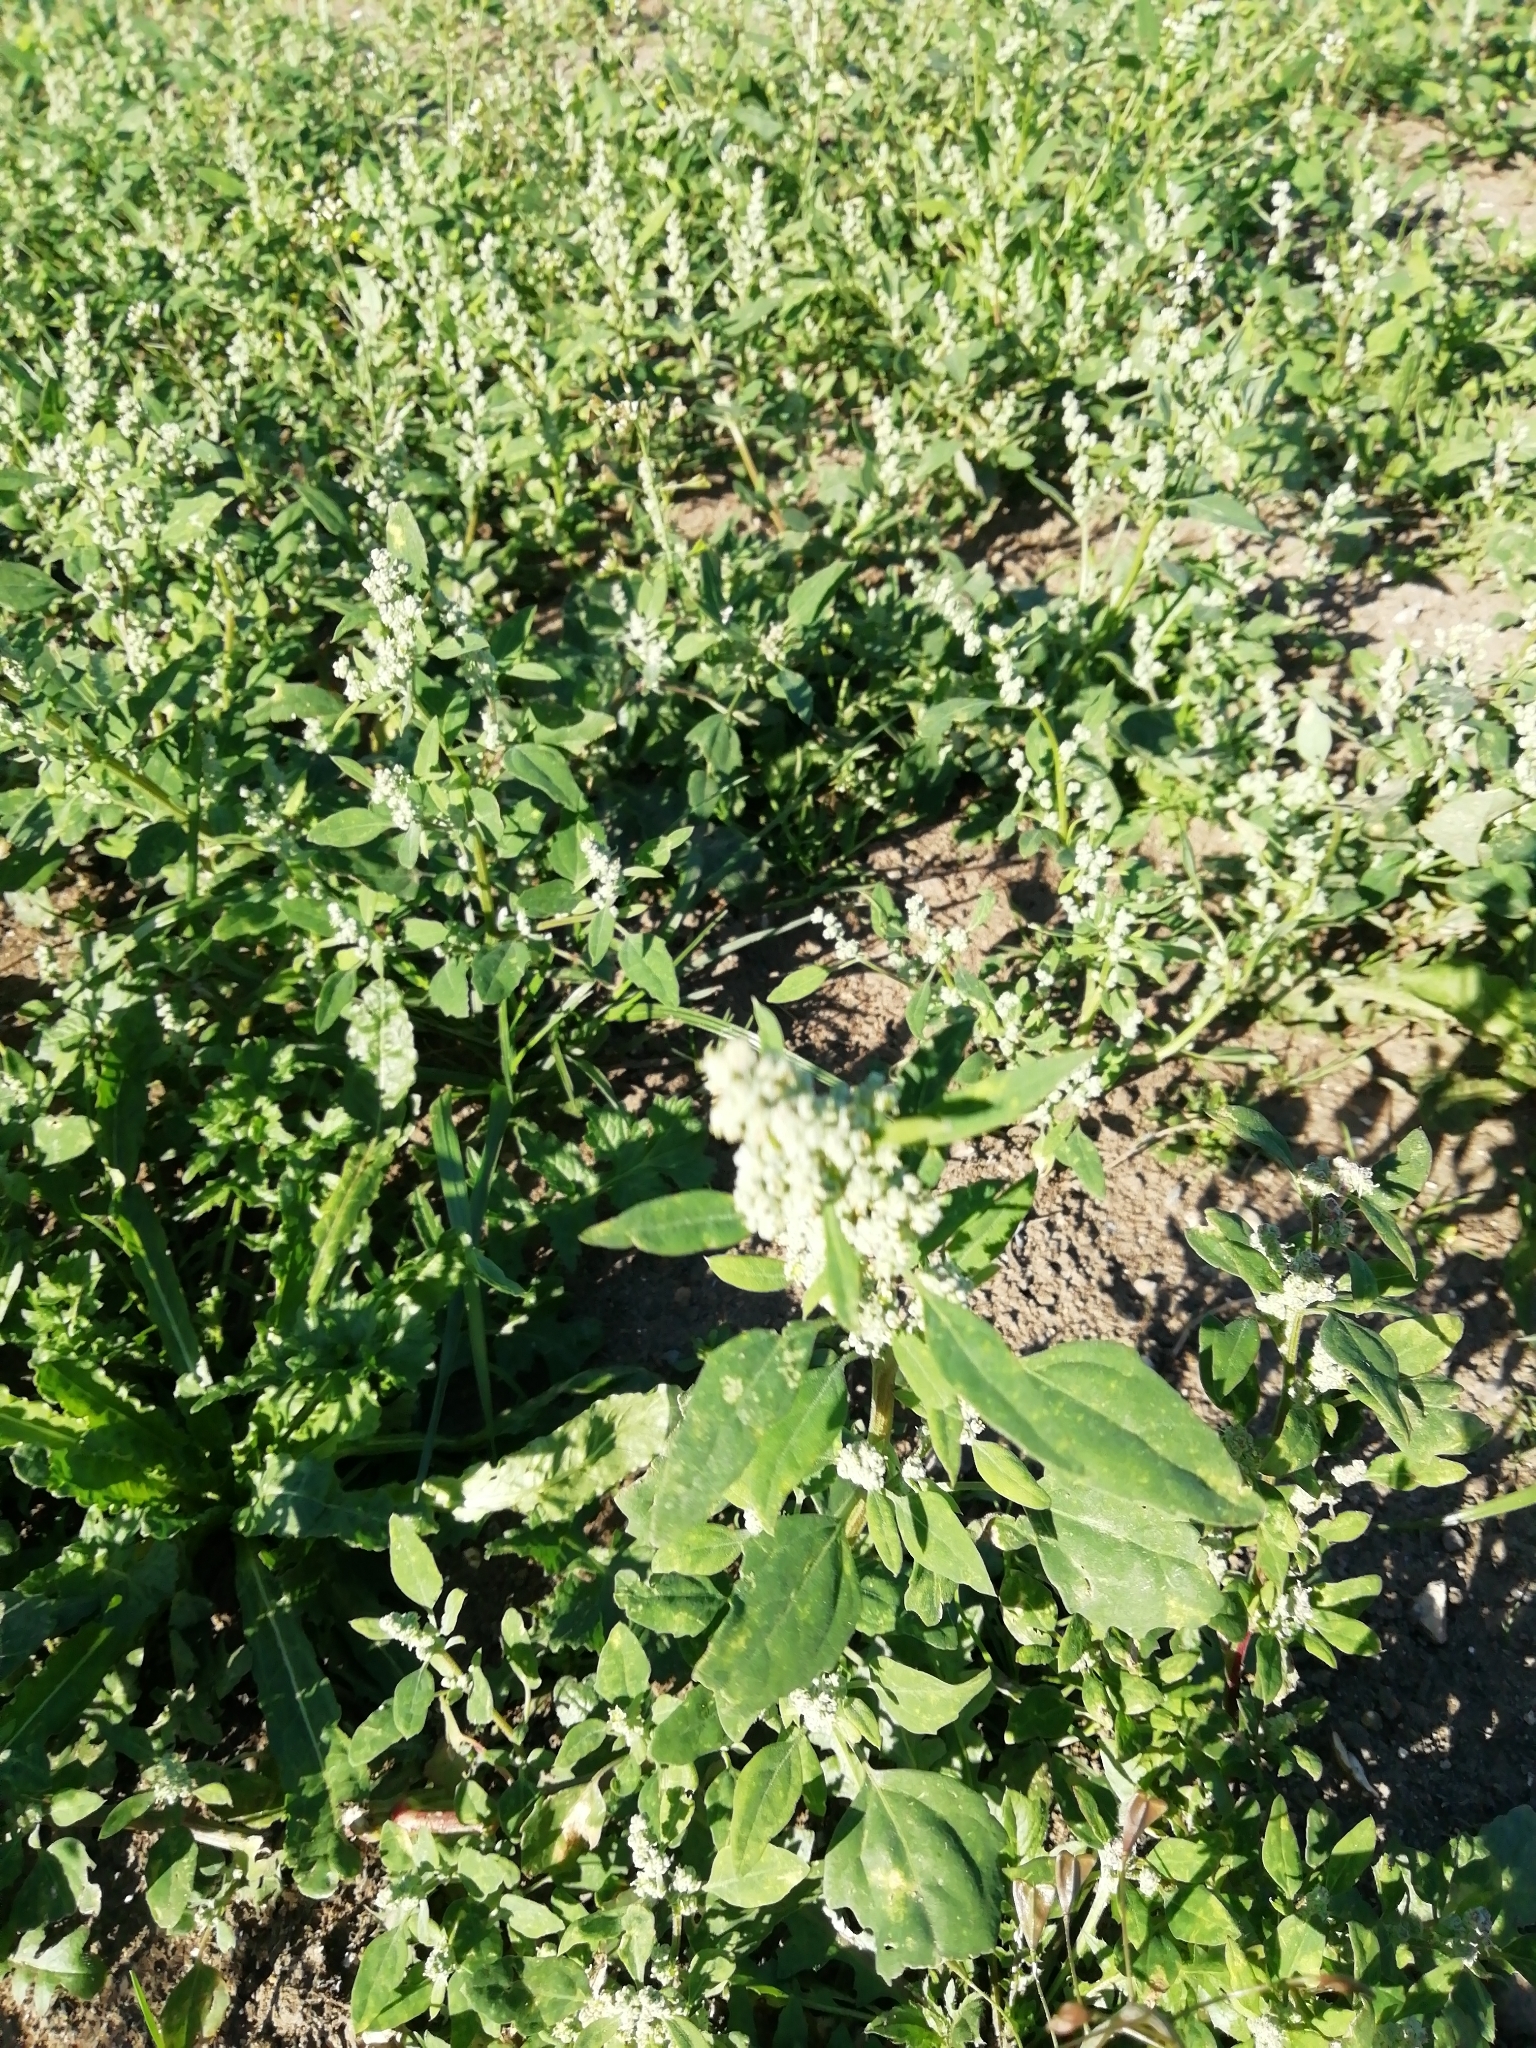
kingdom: Plantae
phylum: Tracheophyta
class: Magnoliopsida
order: Caryophyllales
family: Amaranthaceae
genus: Chenopodium
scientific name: Chenopodium album
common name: Fat-hen
